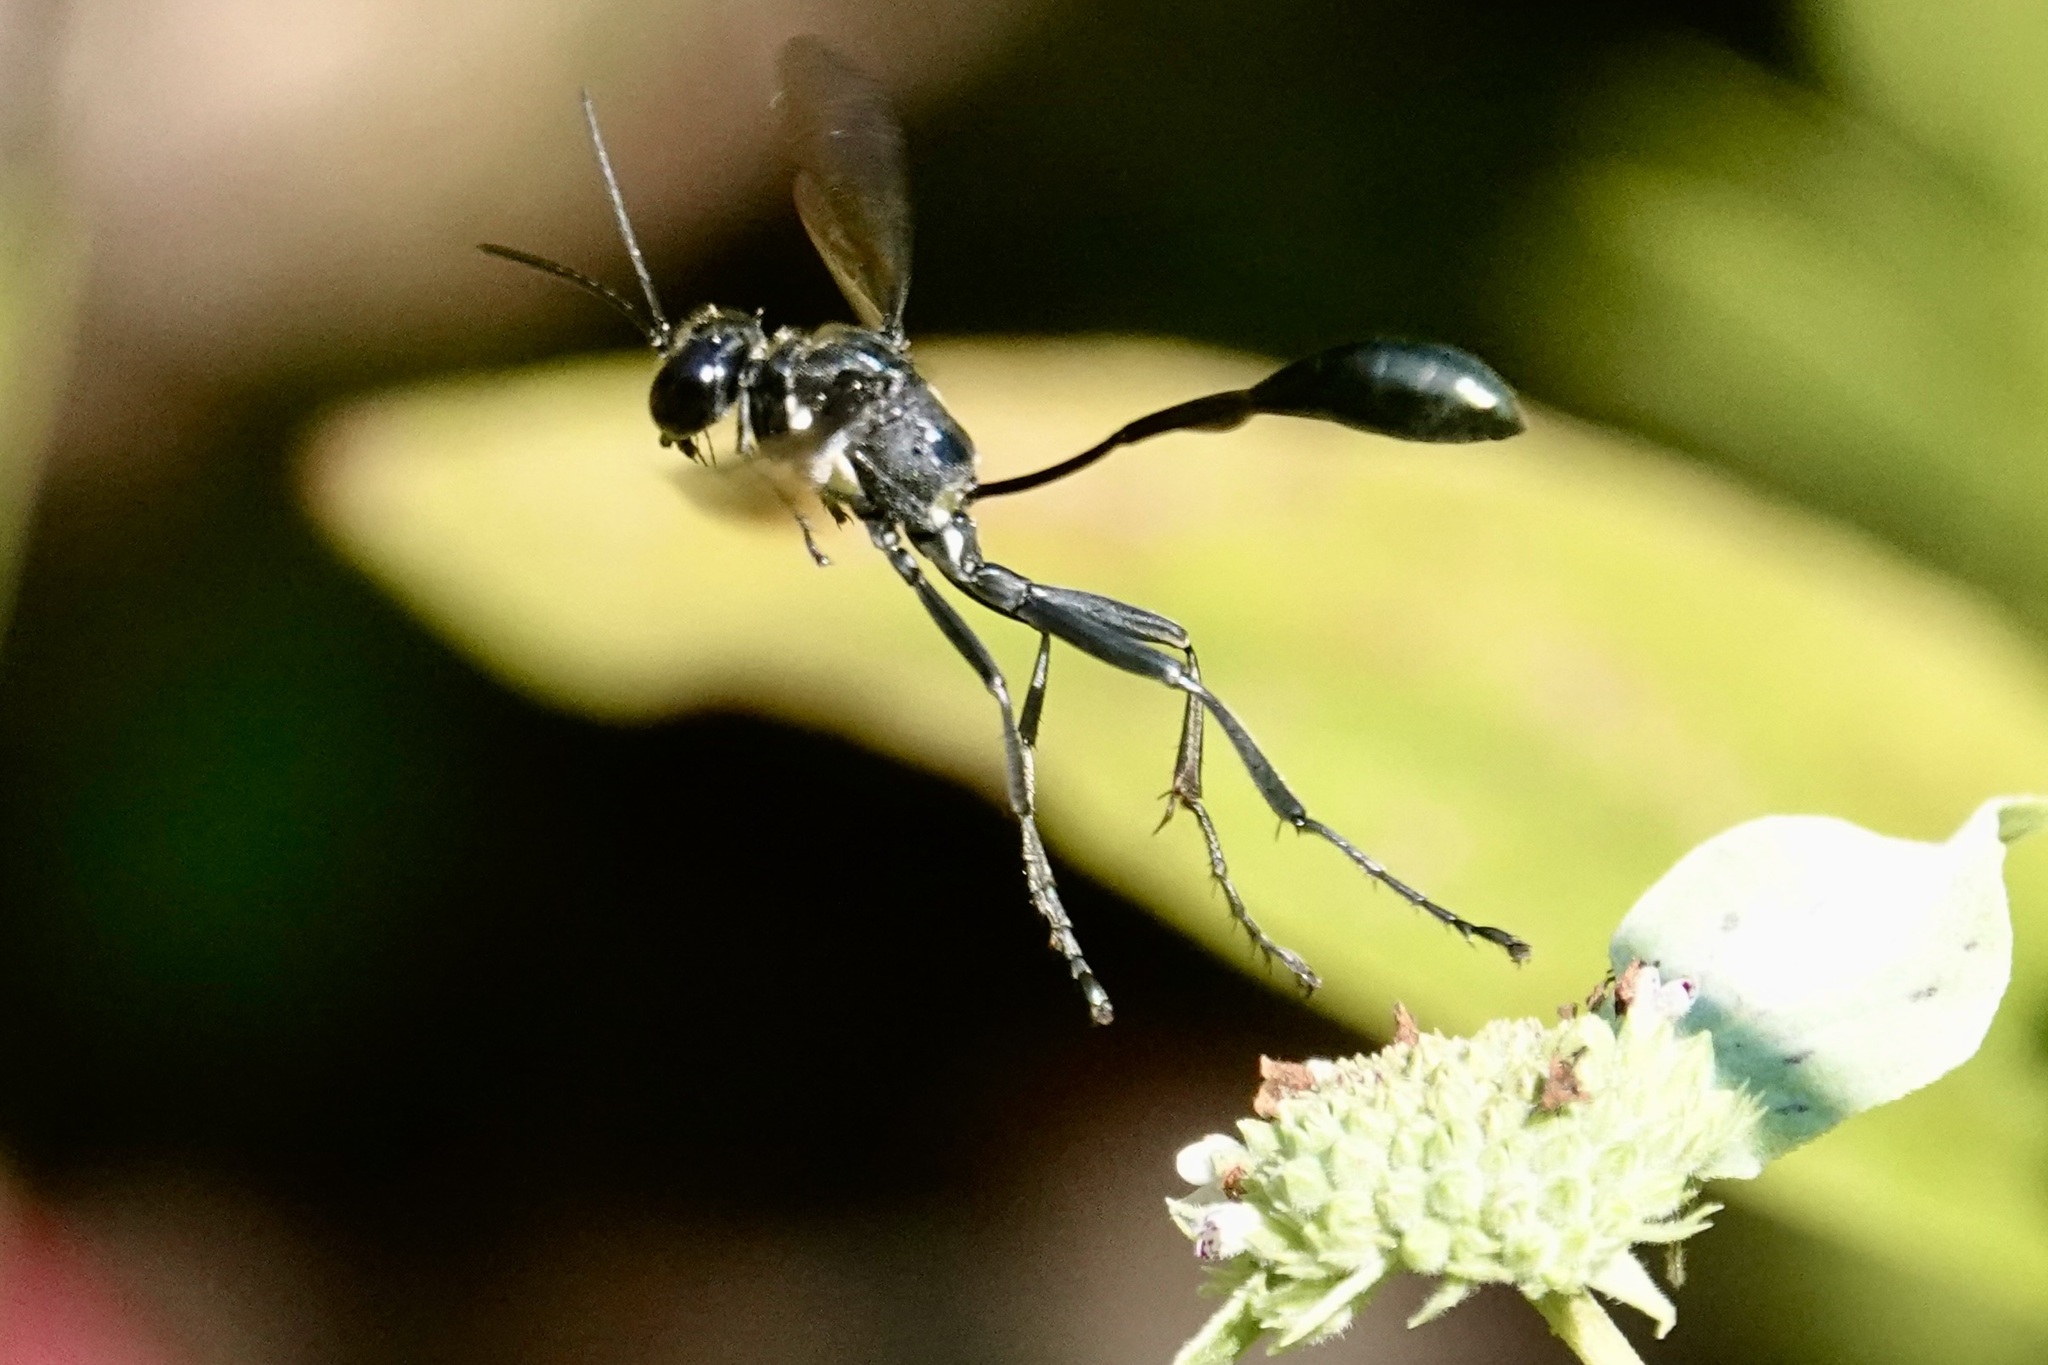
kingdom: Animalia
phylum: Arthropoda
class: Insecta
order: Hymenoptera
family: Sphecidae
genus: Eremnophila
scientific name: Eremnophila aureonotata
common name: Gold-marked thread-waisted wasp
